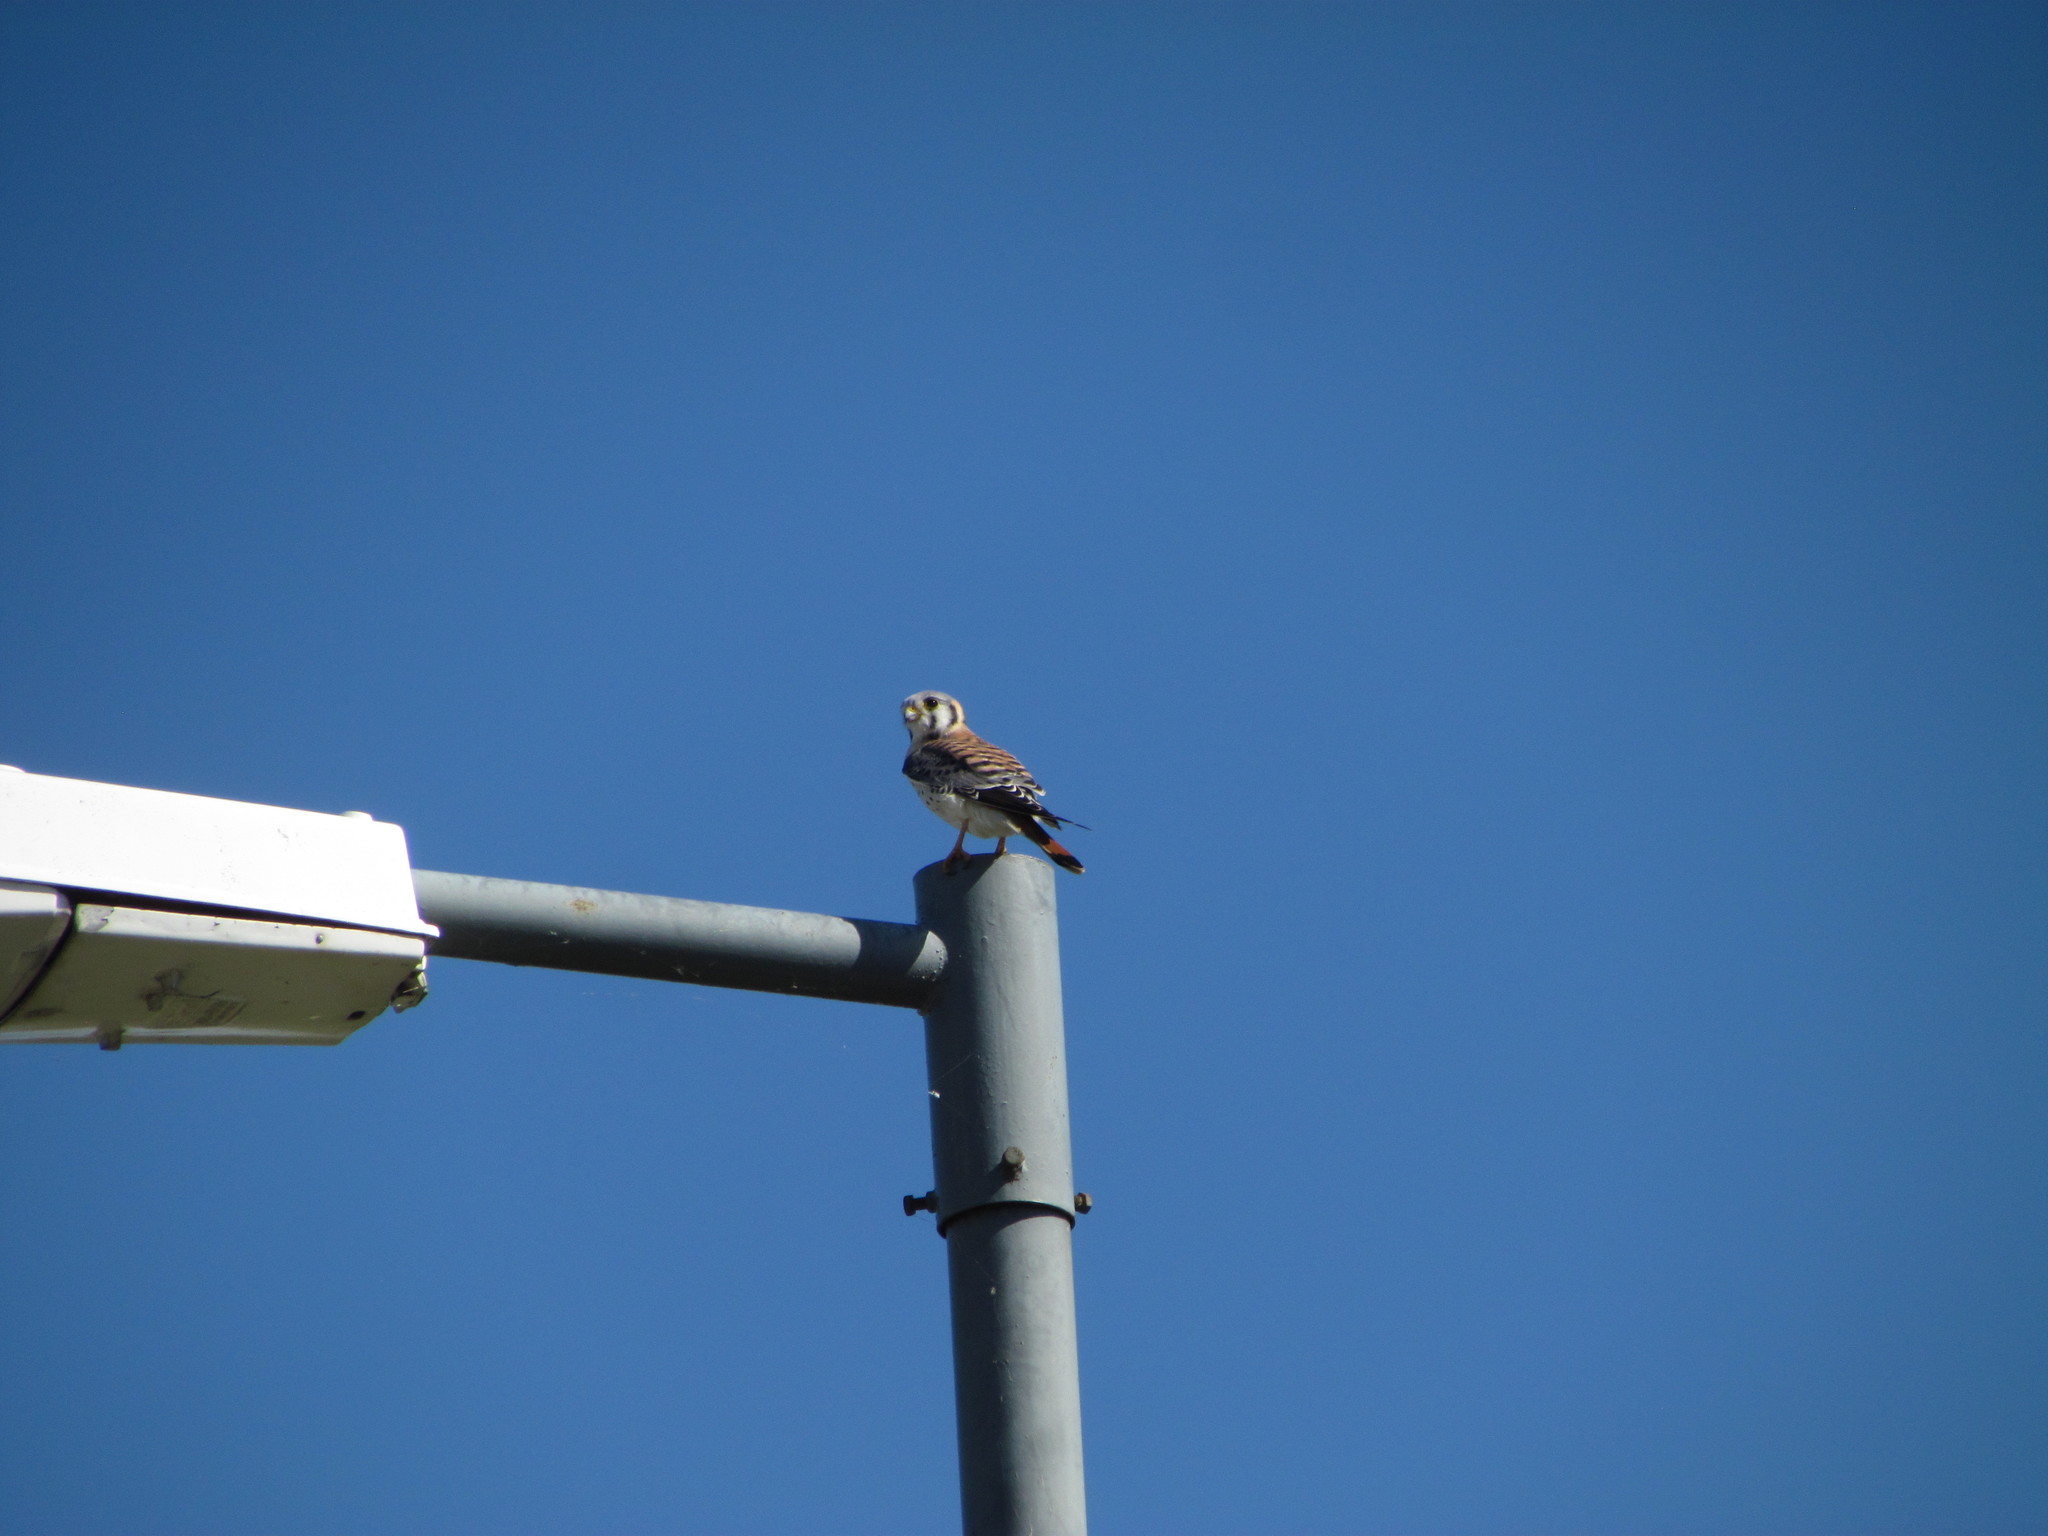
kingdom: Animalia
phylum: Chordata
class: Aves
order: Falconiformes
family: Falconidae
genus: Falco
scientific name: Falco sparverius
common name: American kestrel
